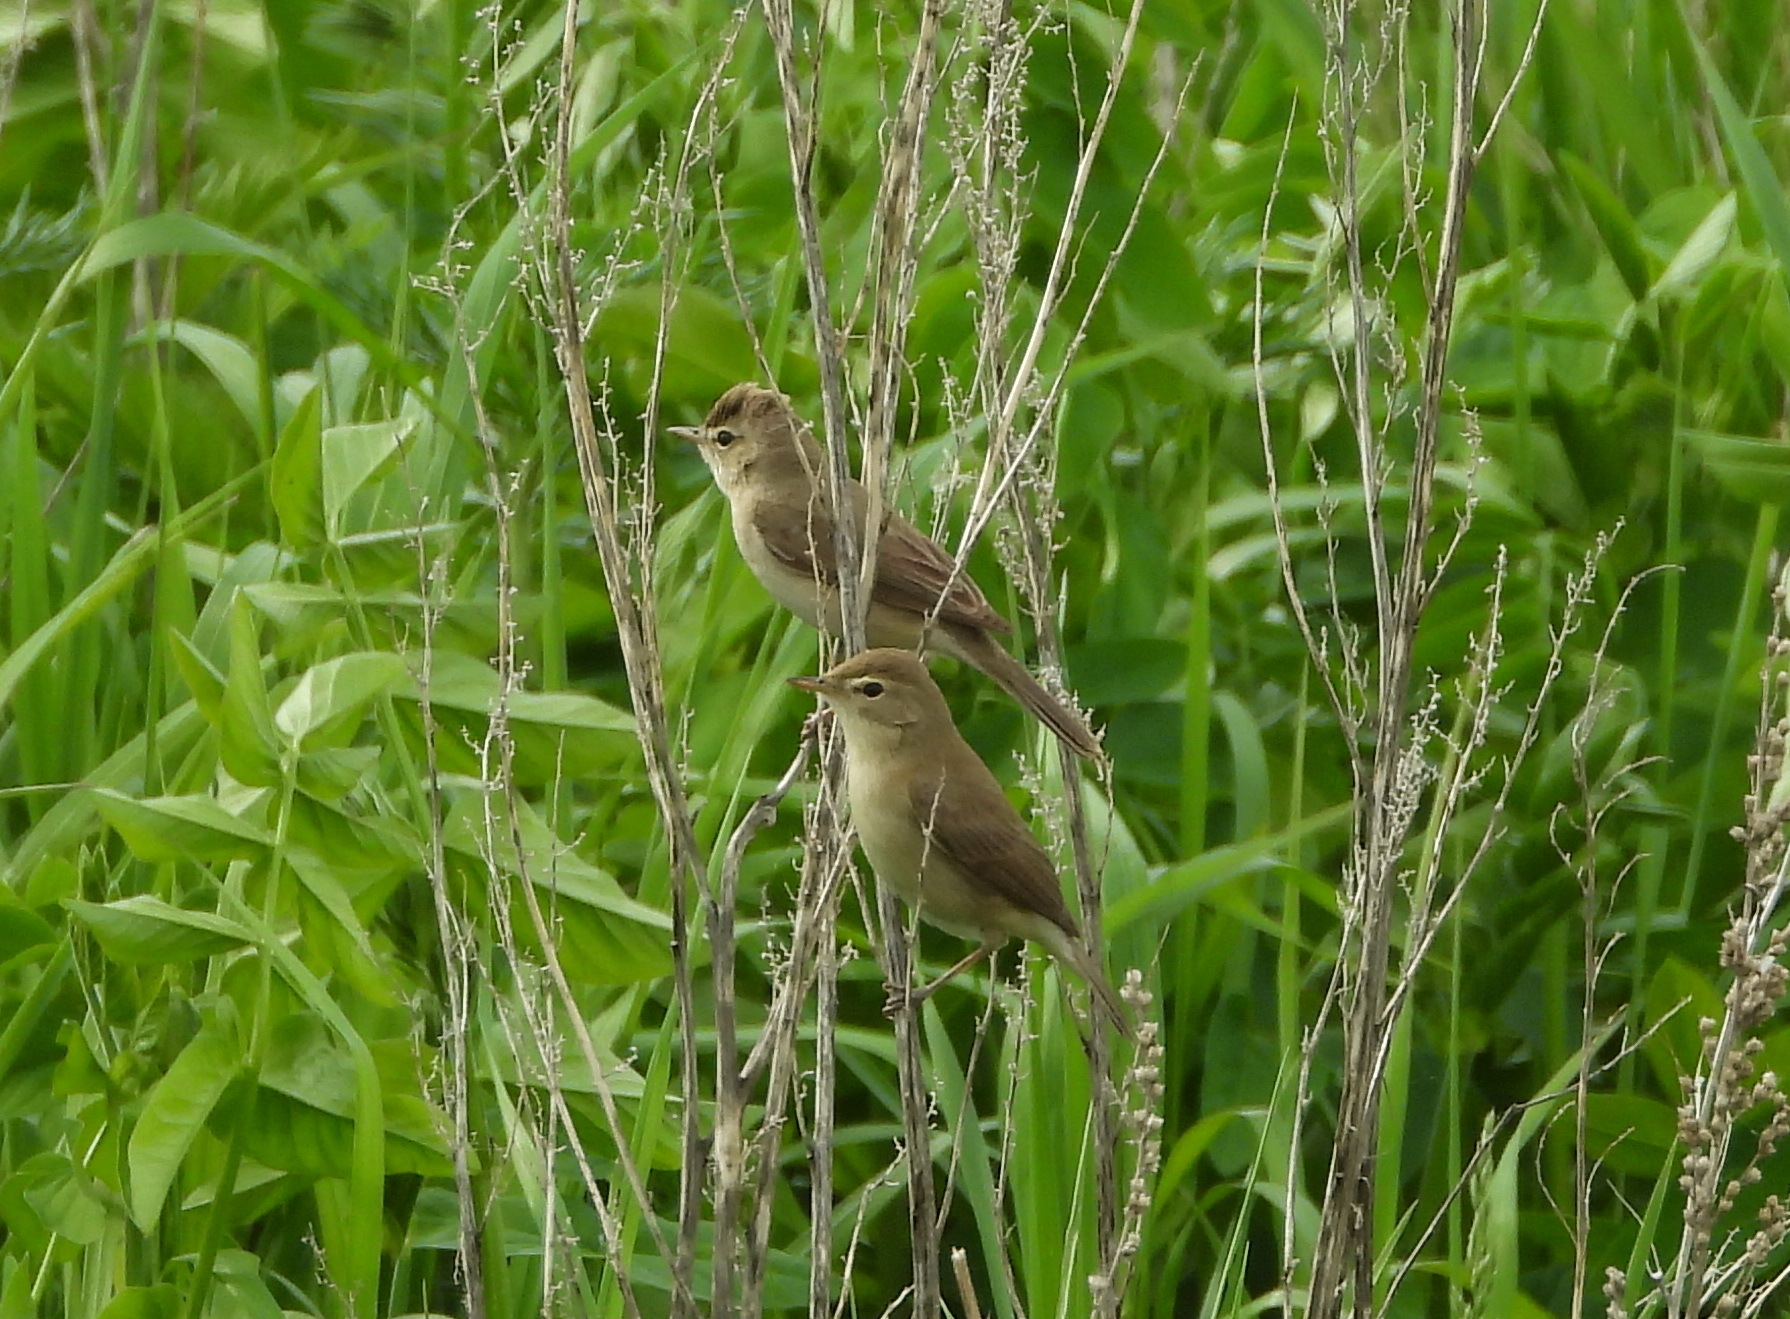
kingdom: Animalia
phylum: Chordata
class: Aves
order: Passeriformes
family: Acrocephalidae
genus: Iduna
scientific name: Iduna caligata
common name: Booted warbler
